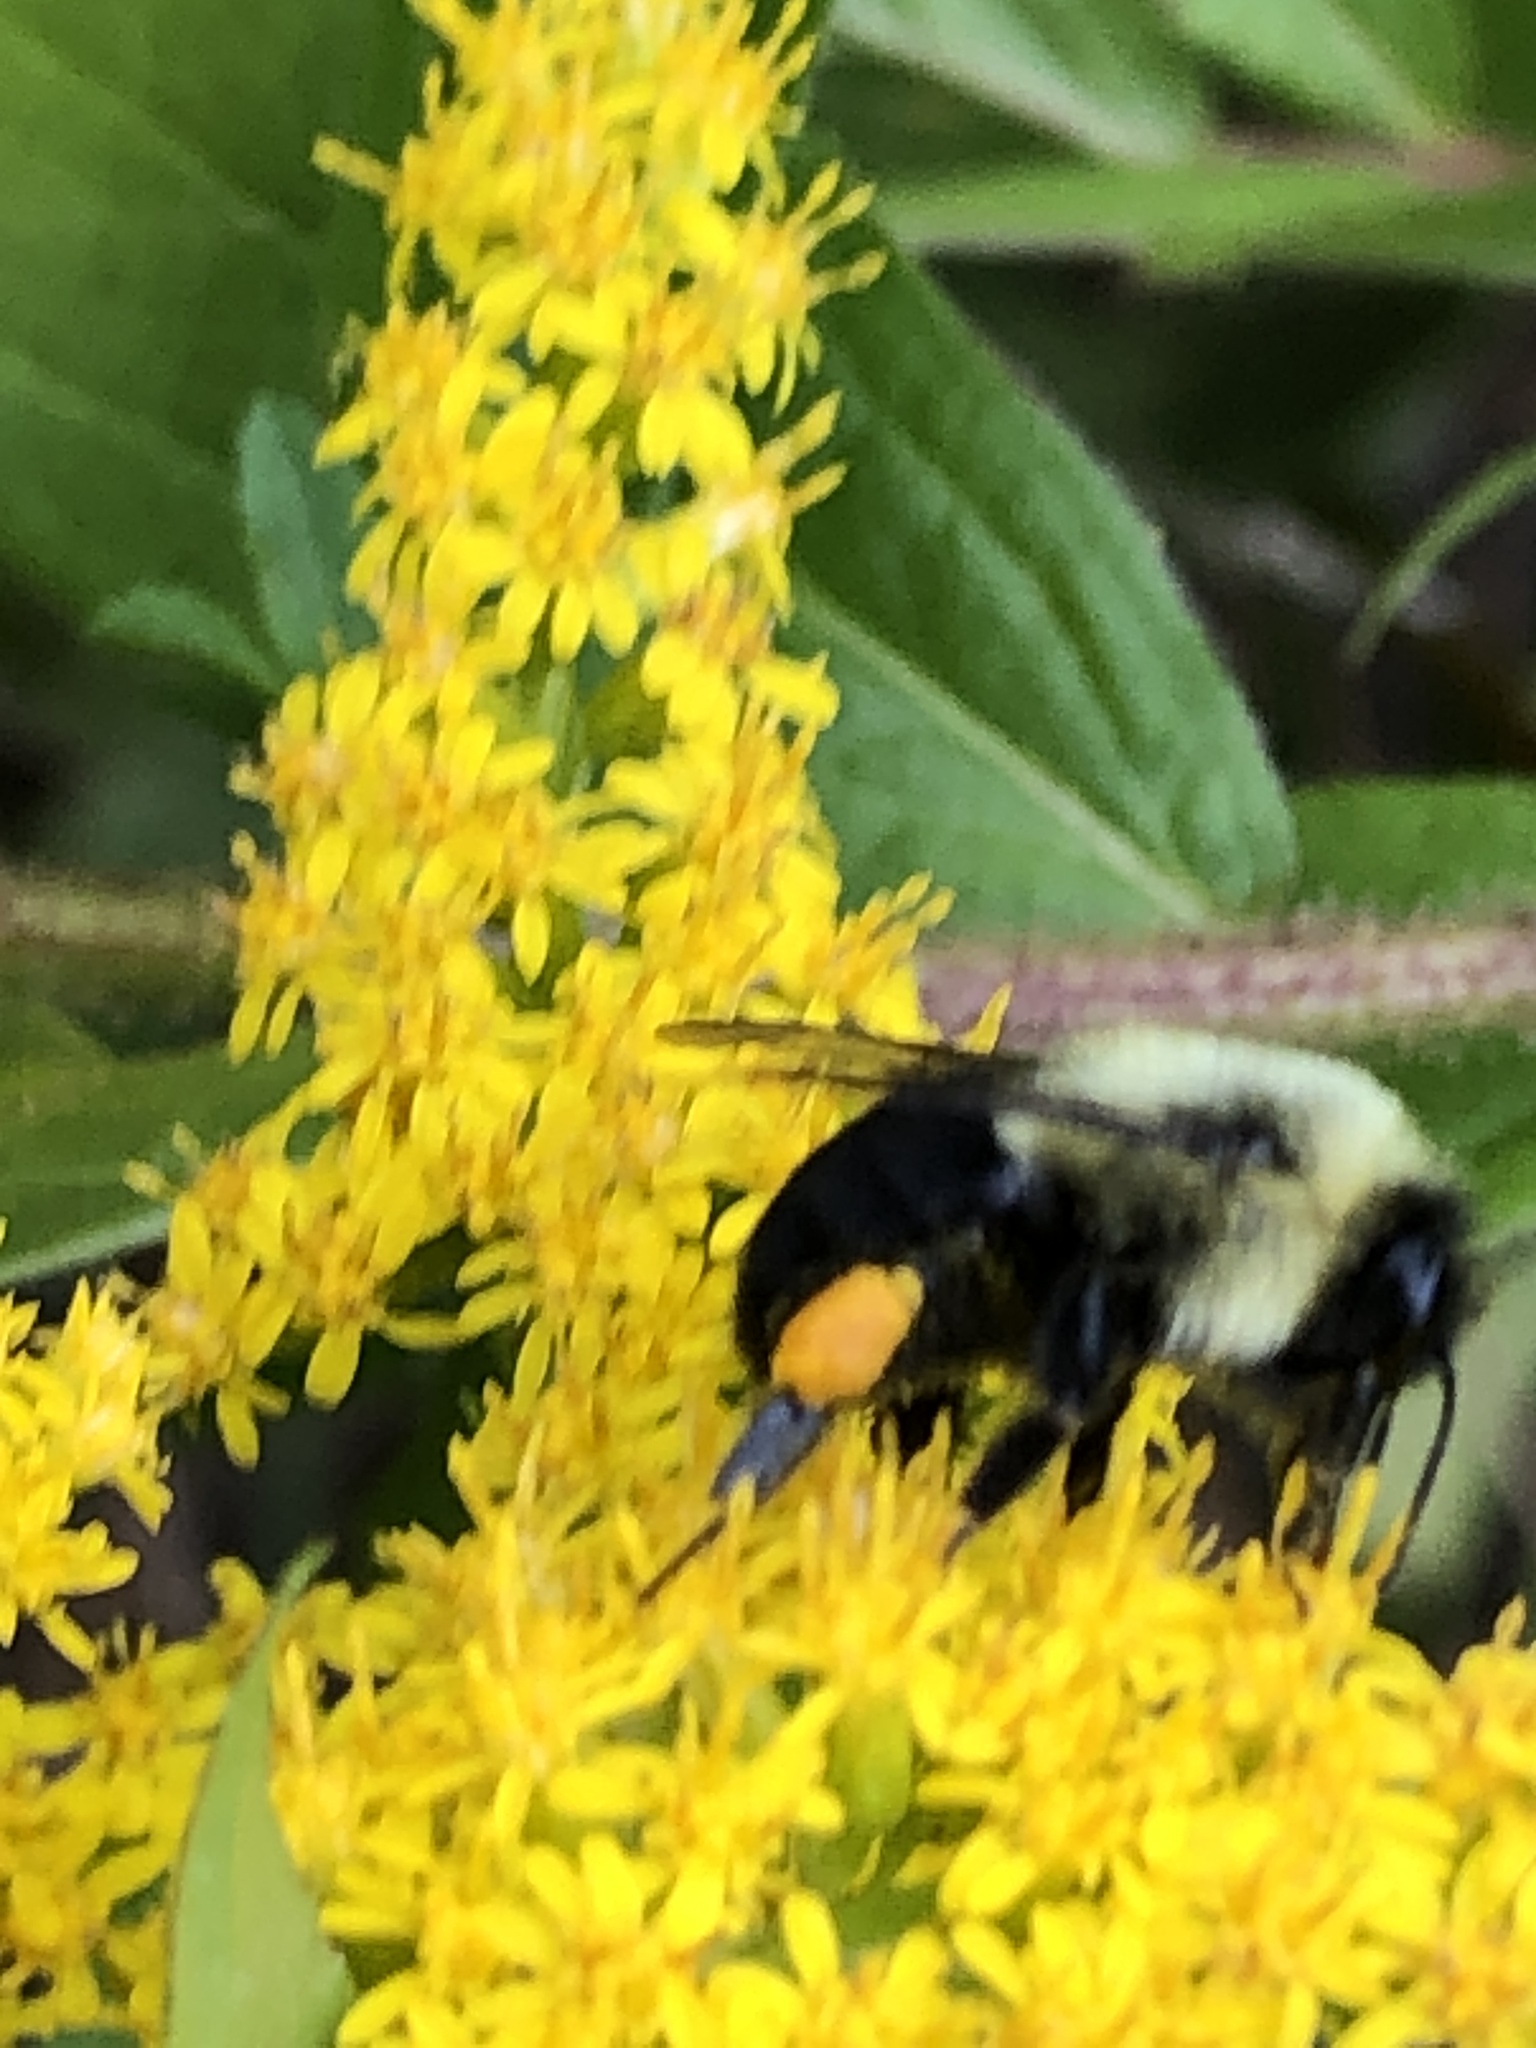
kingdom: Animalia
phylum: Arthropoda
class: Insecta
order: Hymenoptera
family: Apidae
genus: Bombus
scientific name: Bombus impatiens
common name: Common eastern bumble bee
